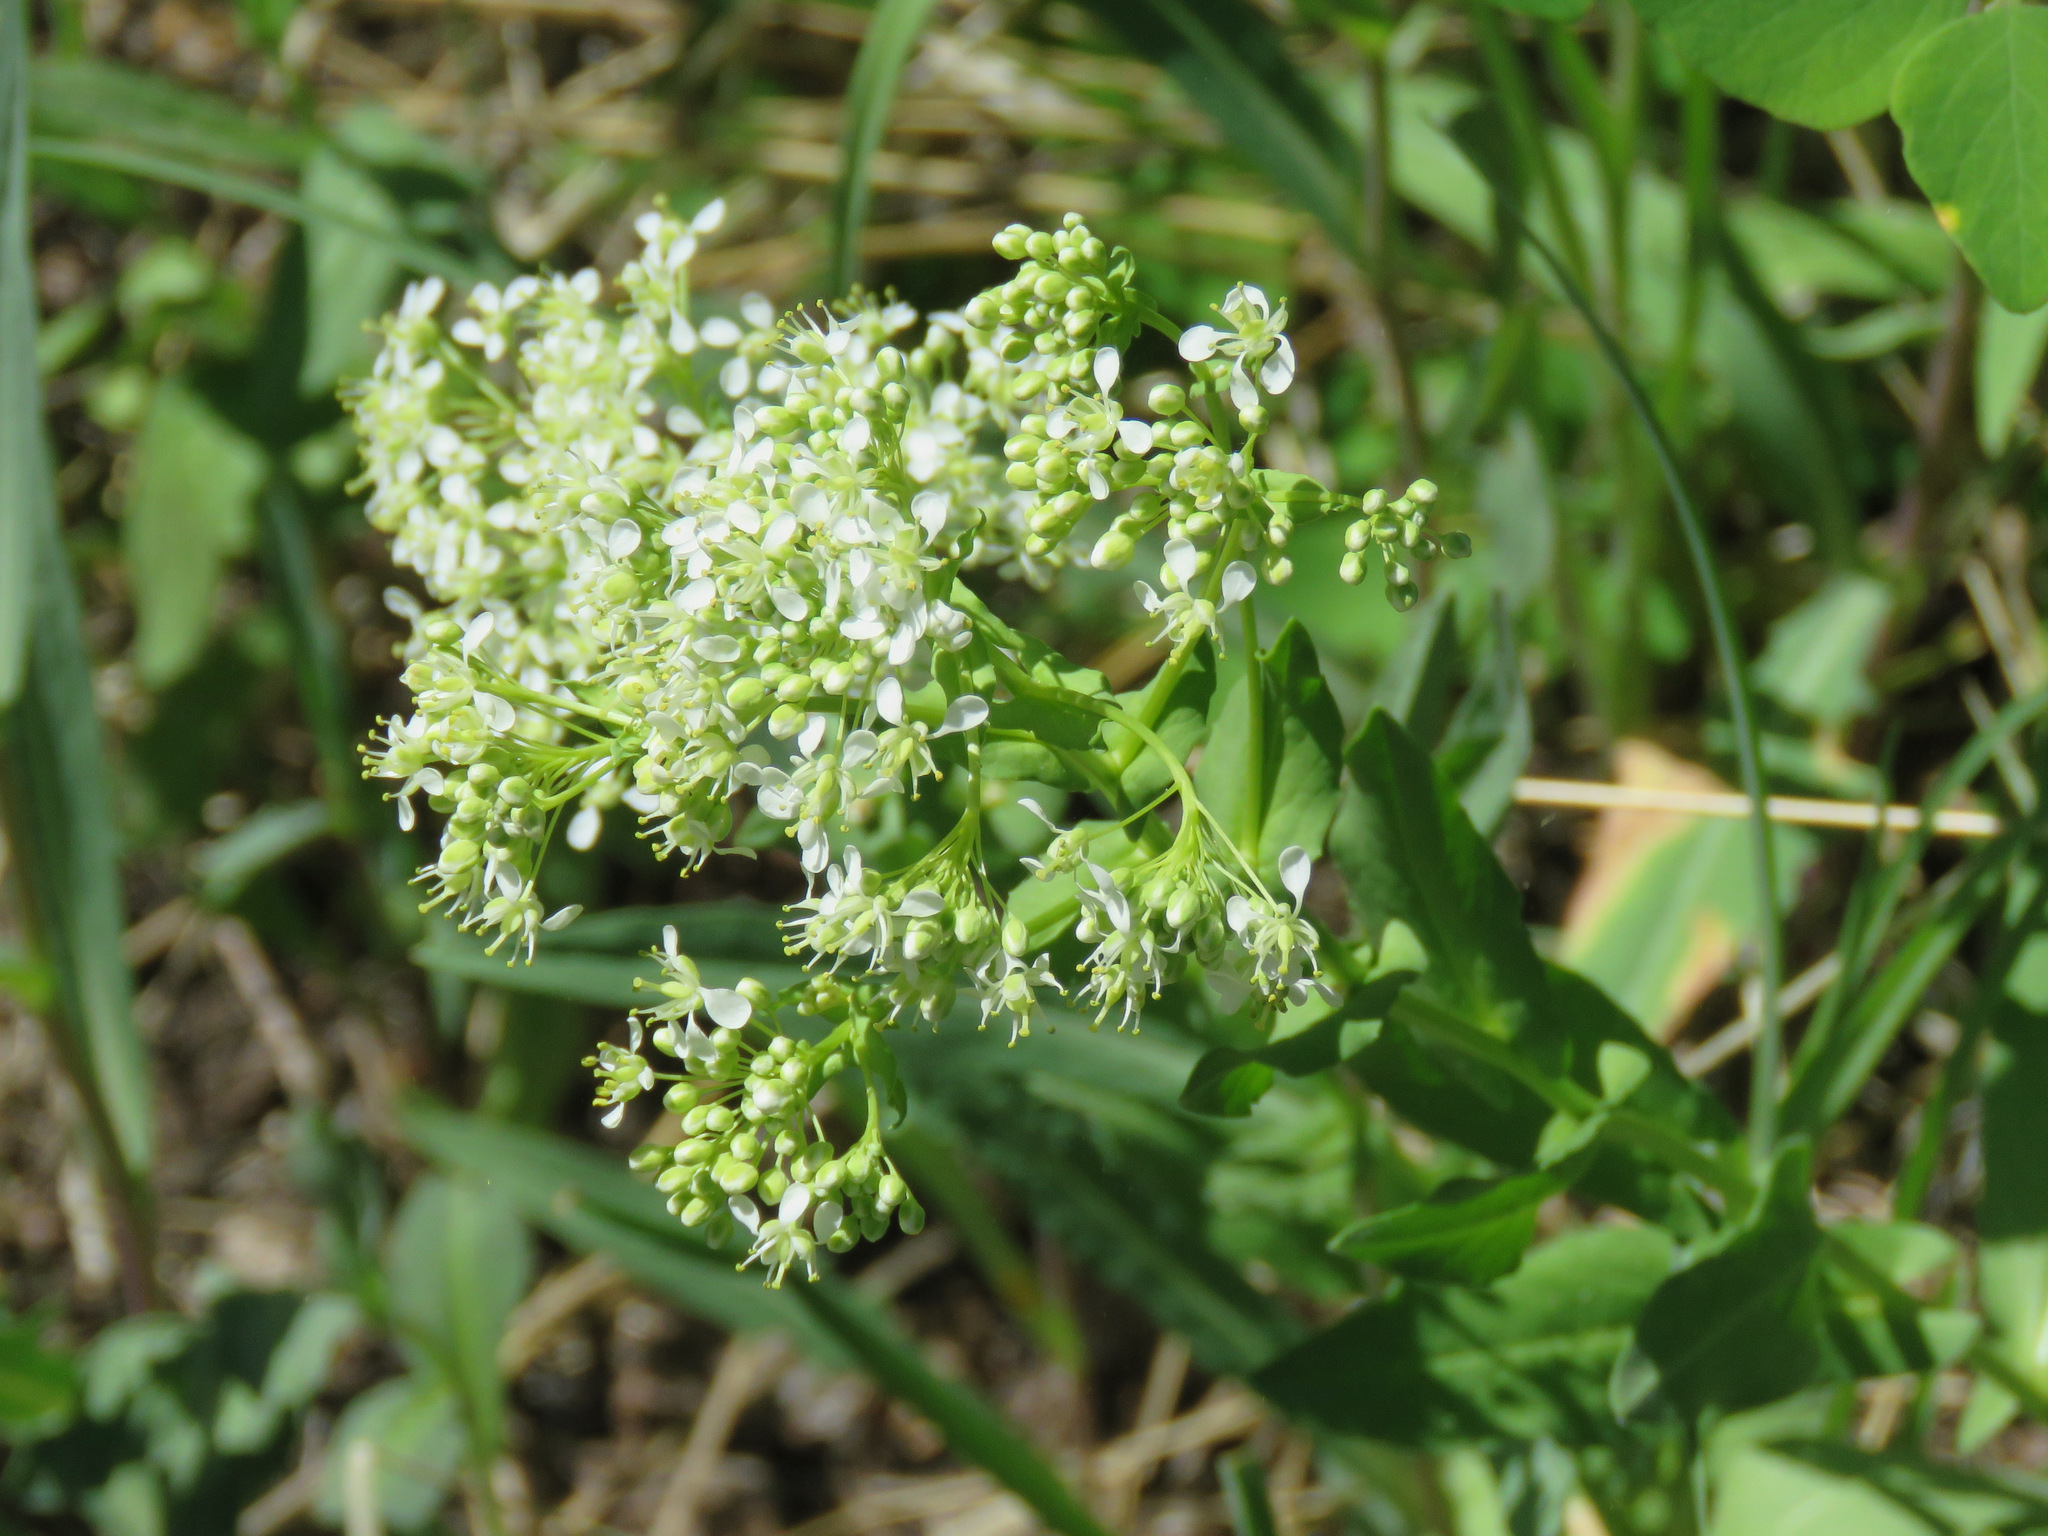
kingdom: Plantae
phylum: Tracheophyta
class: Magnoliopsida
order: Brassicales
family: Brassicaceae
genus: Lepidium
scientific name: Lepidium draba
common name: Hoary cress
